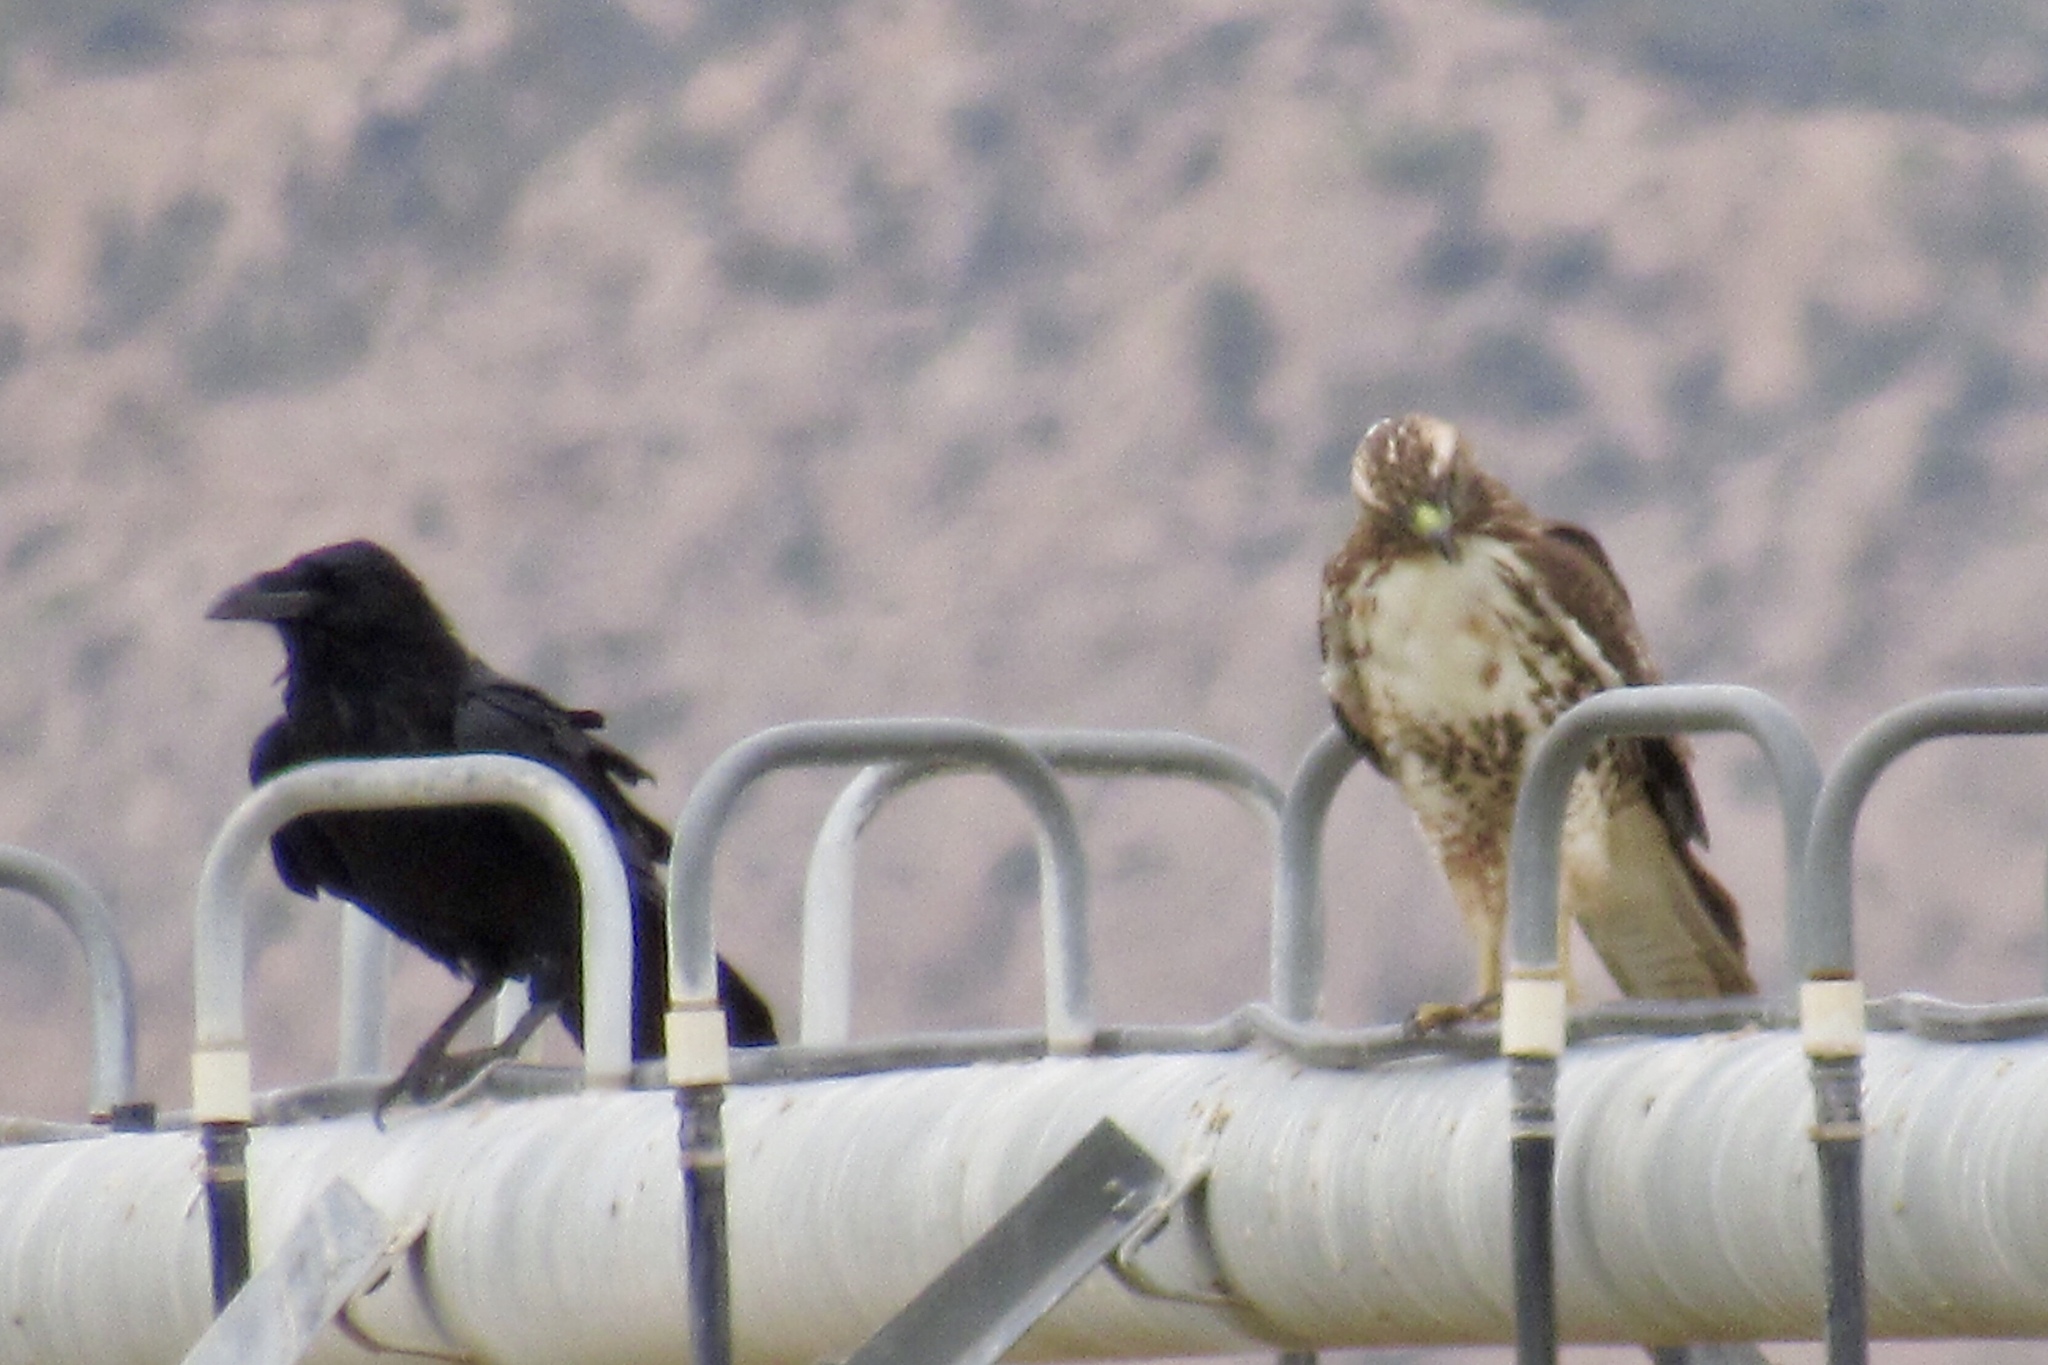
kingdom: Animalia
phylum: Chordata
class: Aves
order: Accipitriformes
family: Accipitridae
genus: Buteo
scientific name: Buteo jamaicensis
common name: Red-tailed hawk
